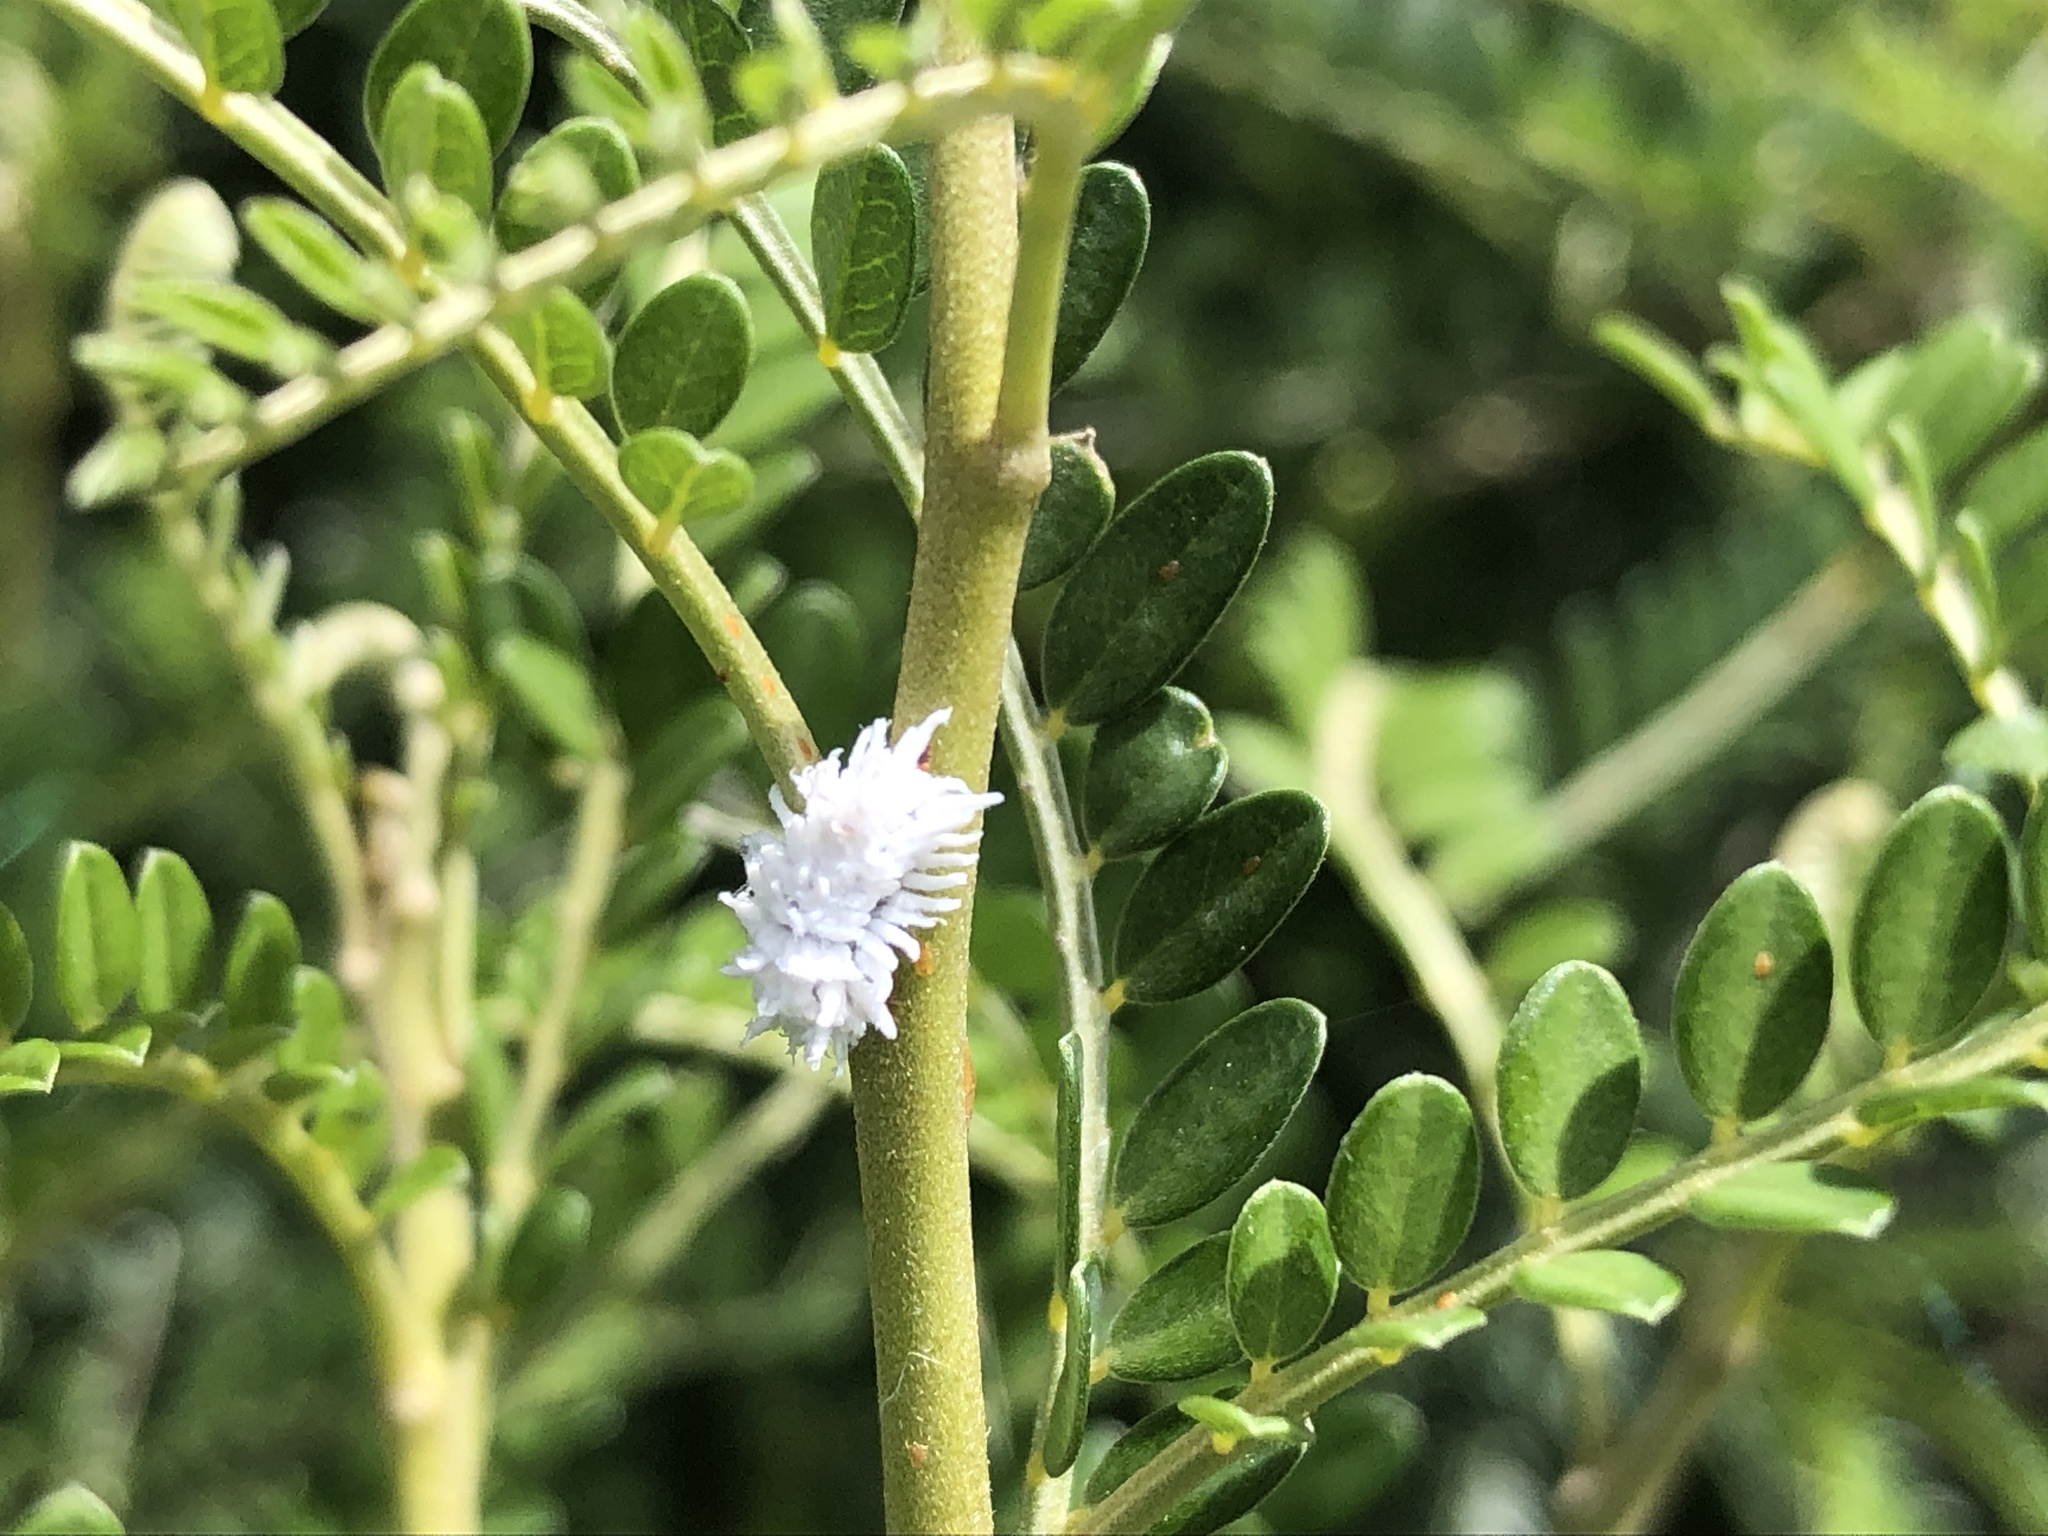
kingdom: Animalia
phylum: Arthropoda
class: Insecta
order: Coleoptera
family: Coccinellidae
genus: Cryptolaemus
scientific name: Cryptolaemus montrouzieri
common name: Mealybug destroyer
